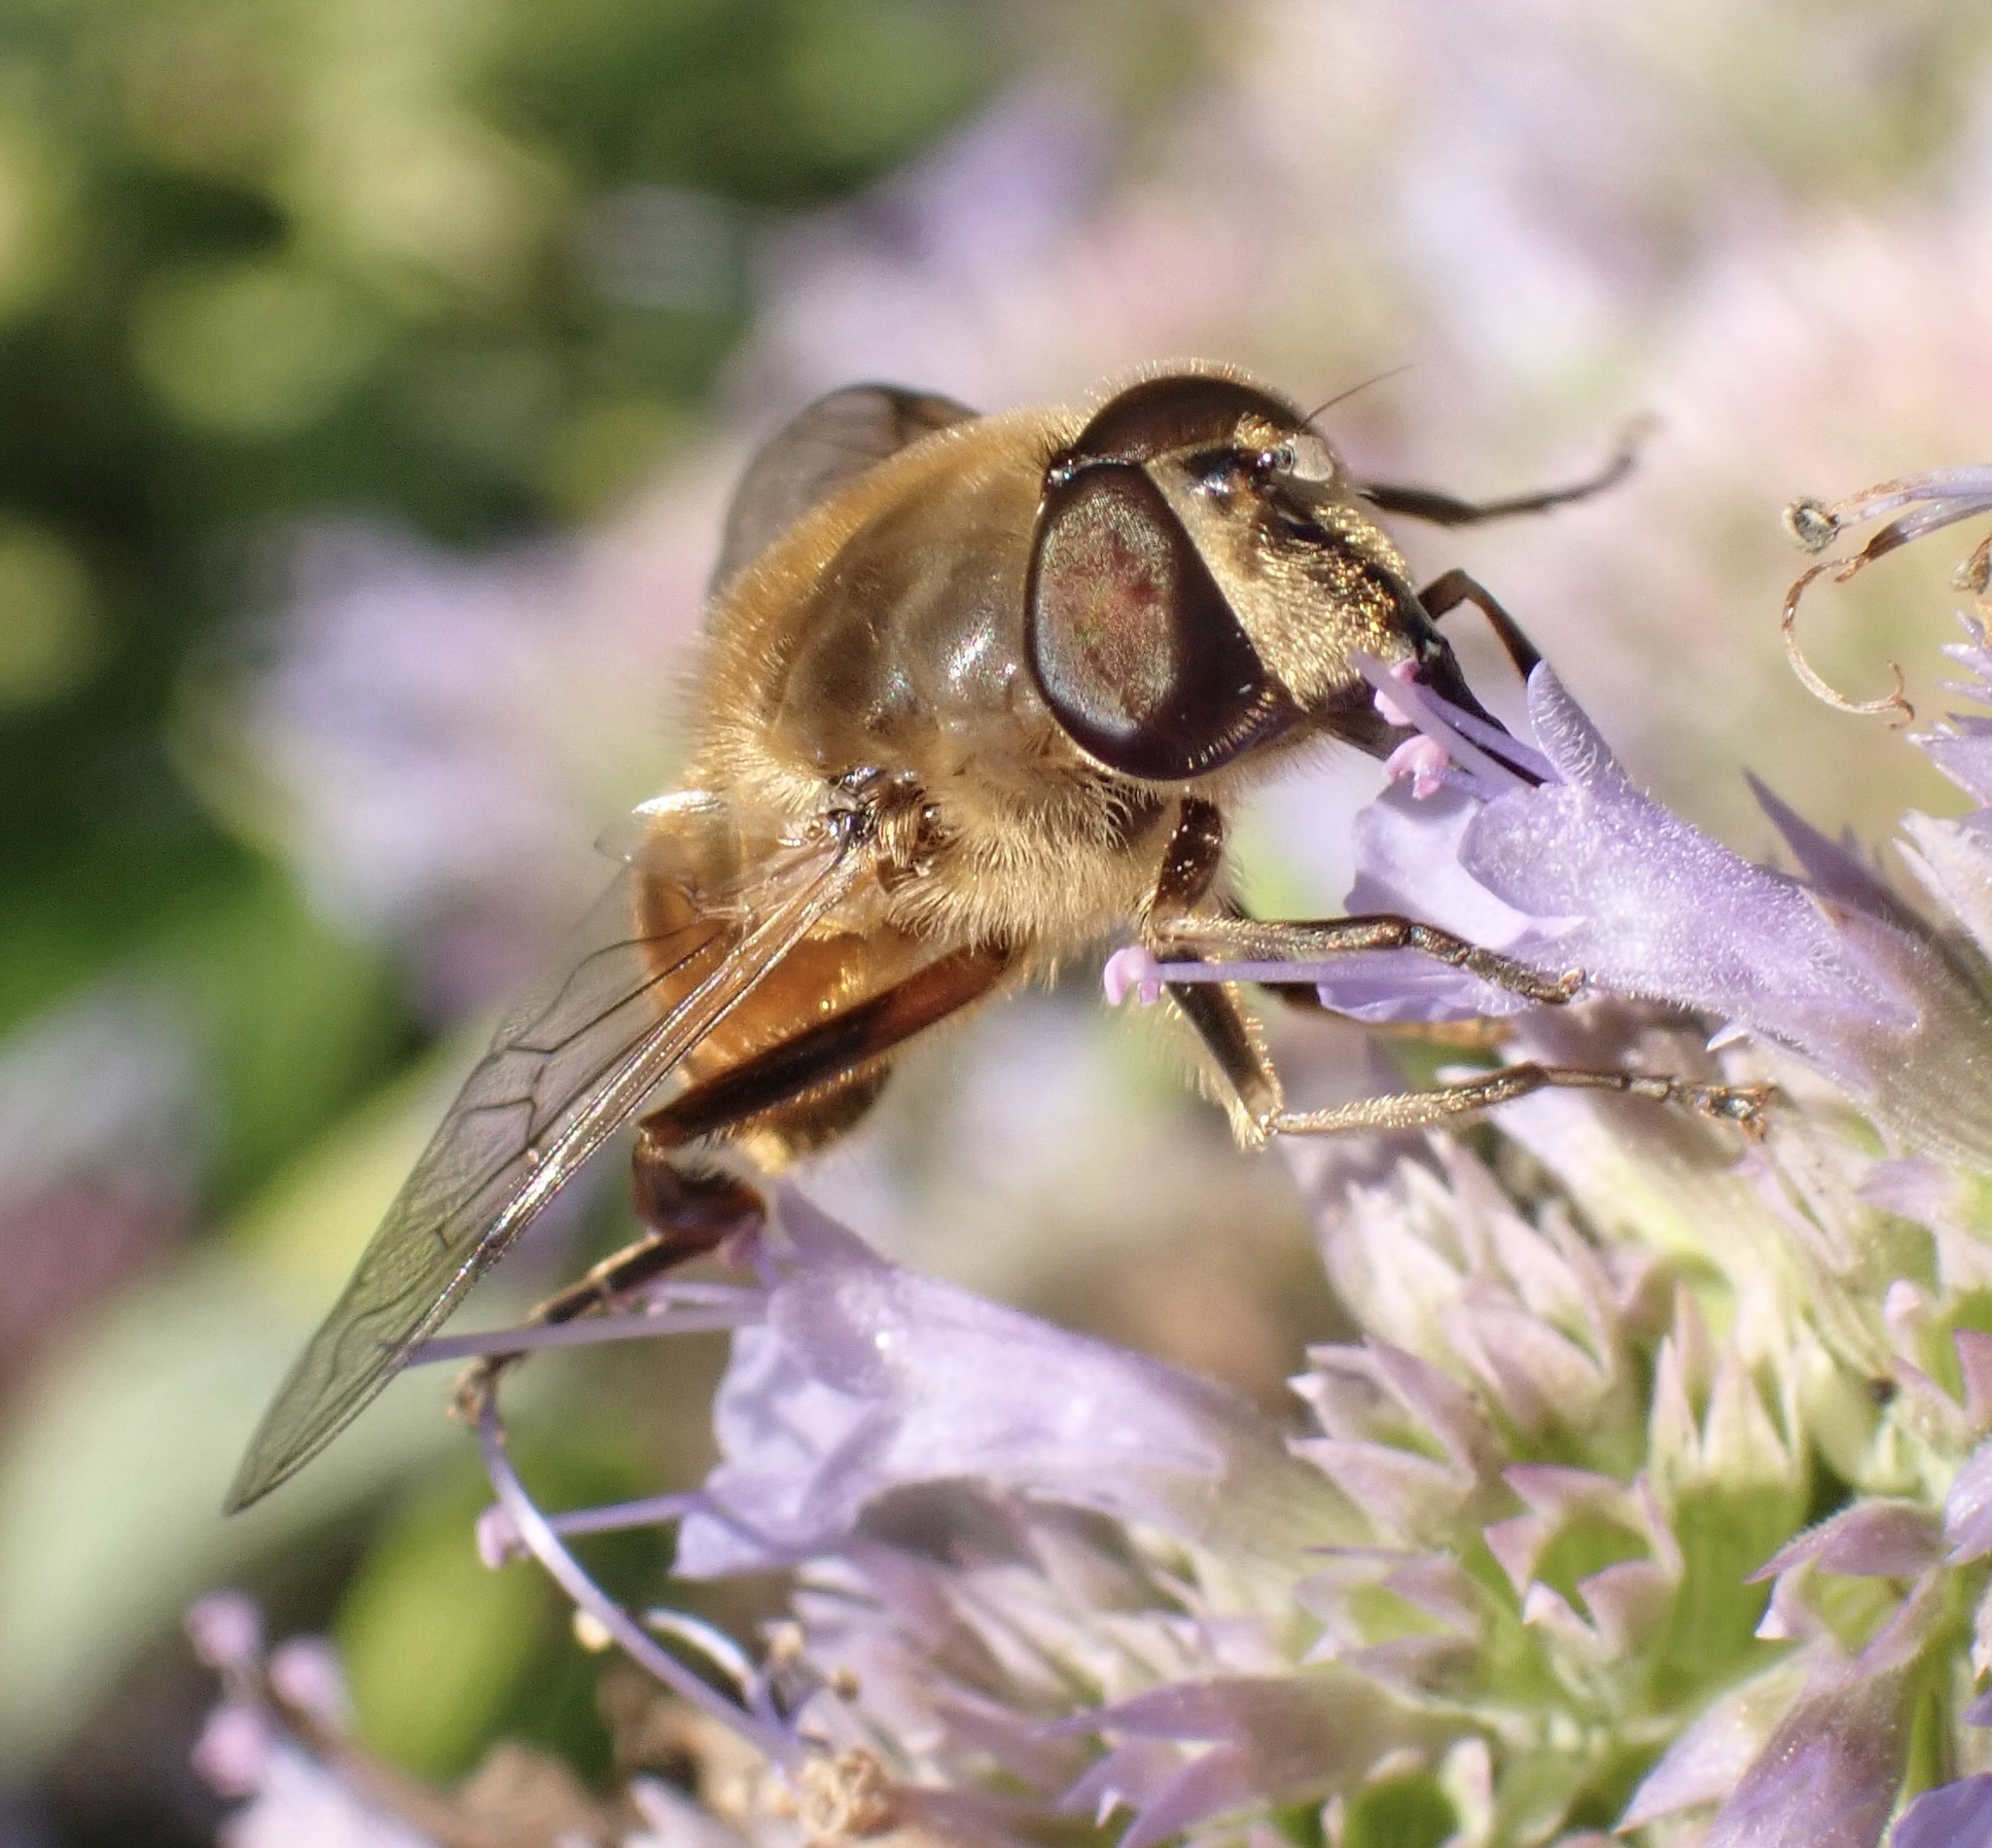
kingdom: Animalia
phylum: Arthropoda
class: Insecta
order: Diptera
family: Syrphidae
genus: Eristalis
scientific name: Eristalis tenax
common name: Drone fly
